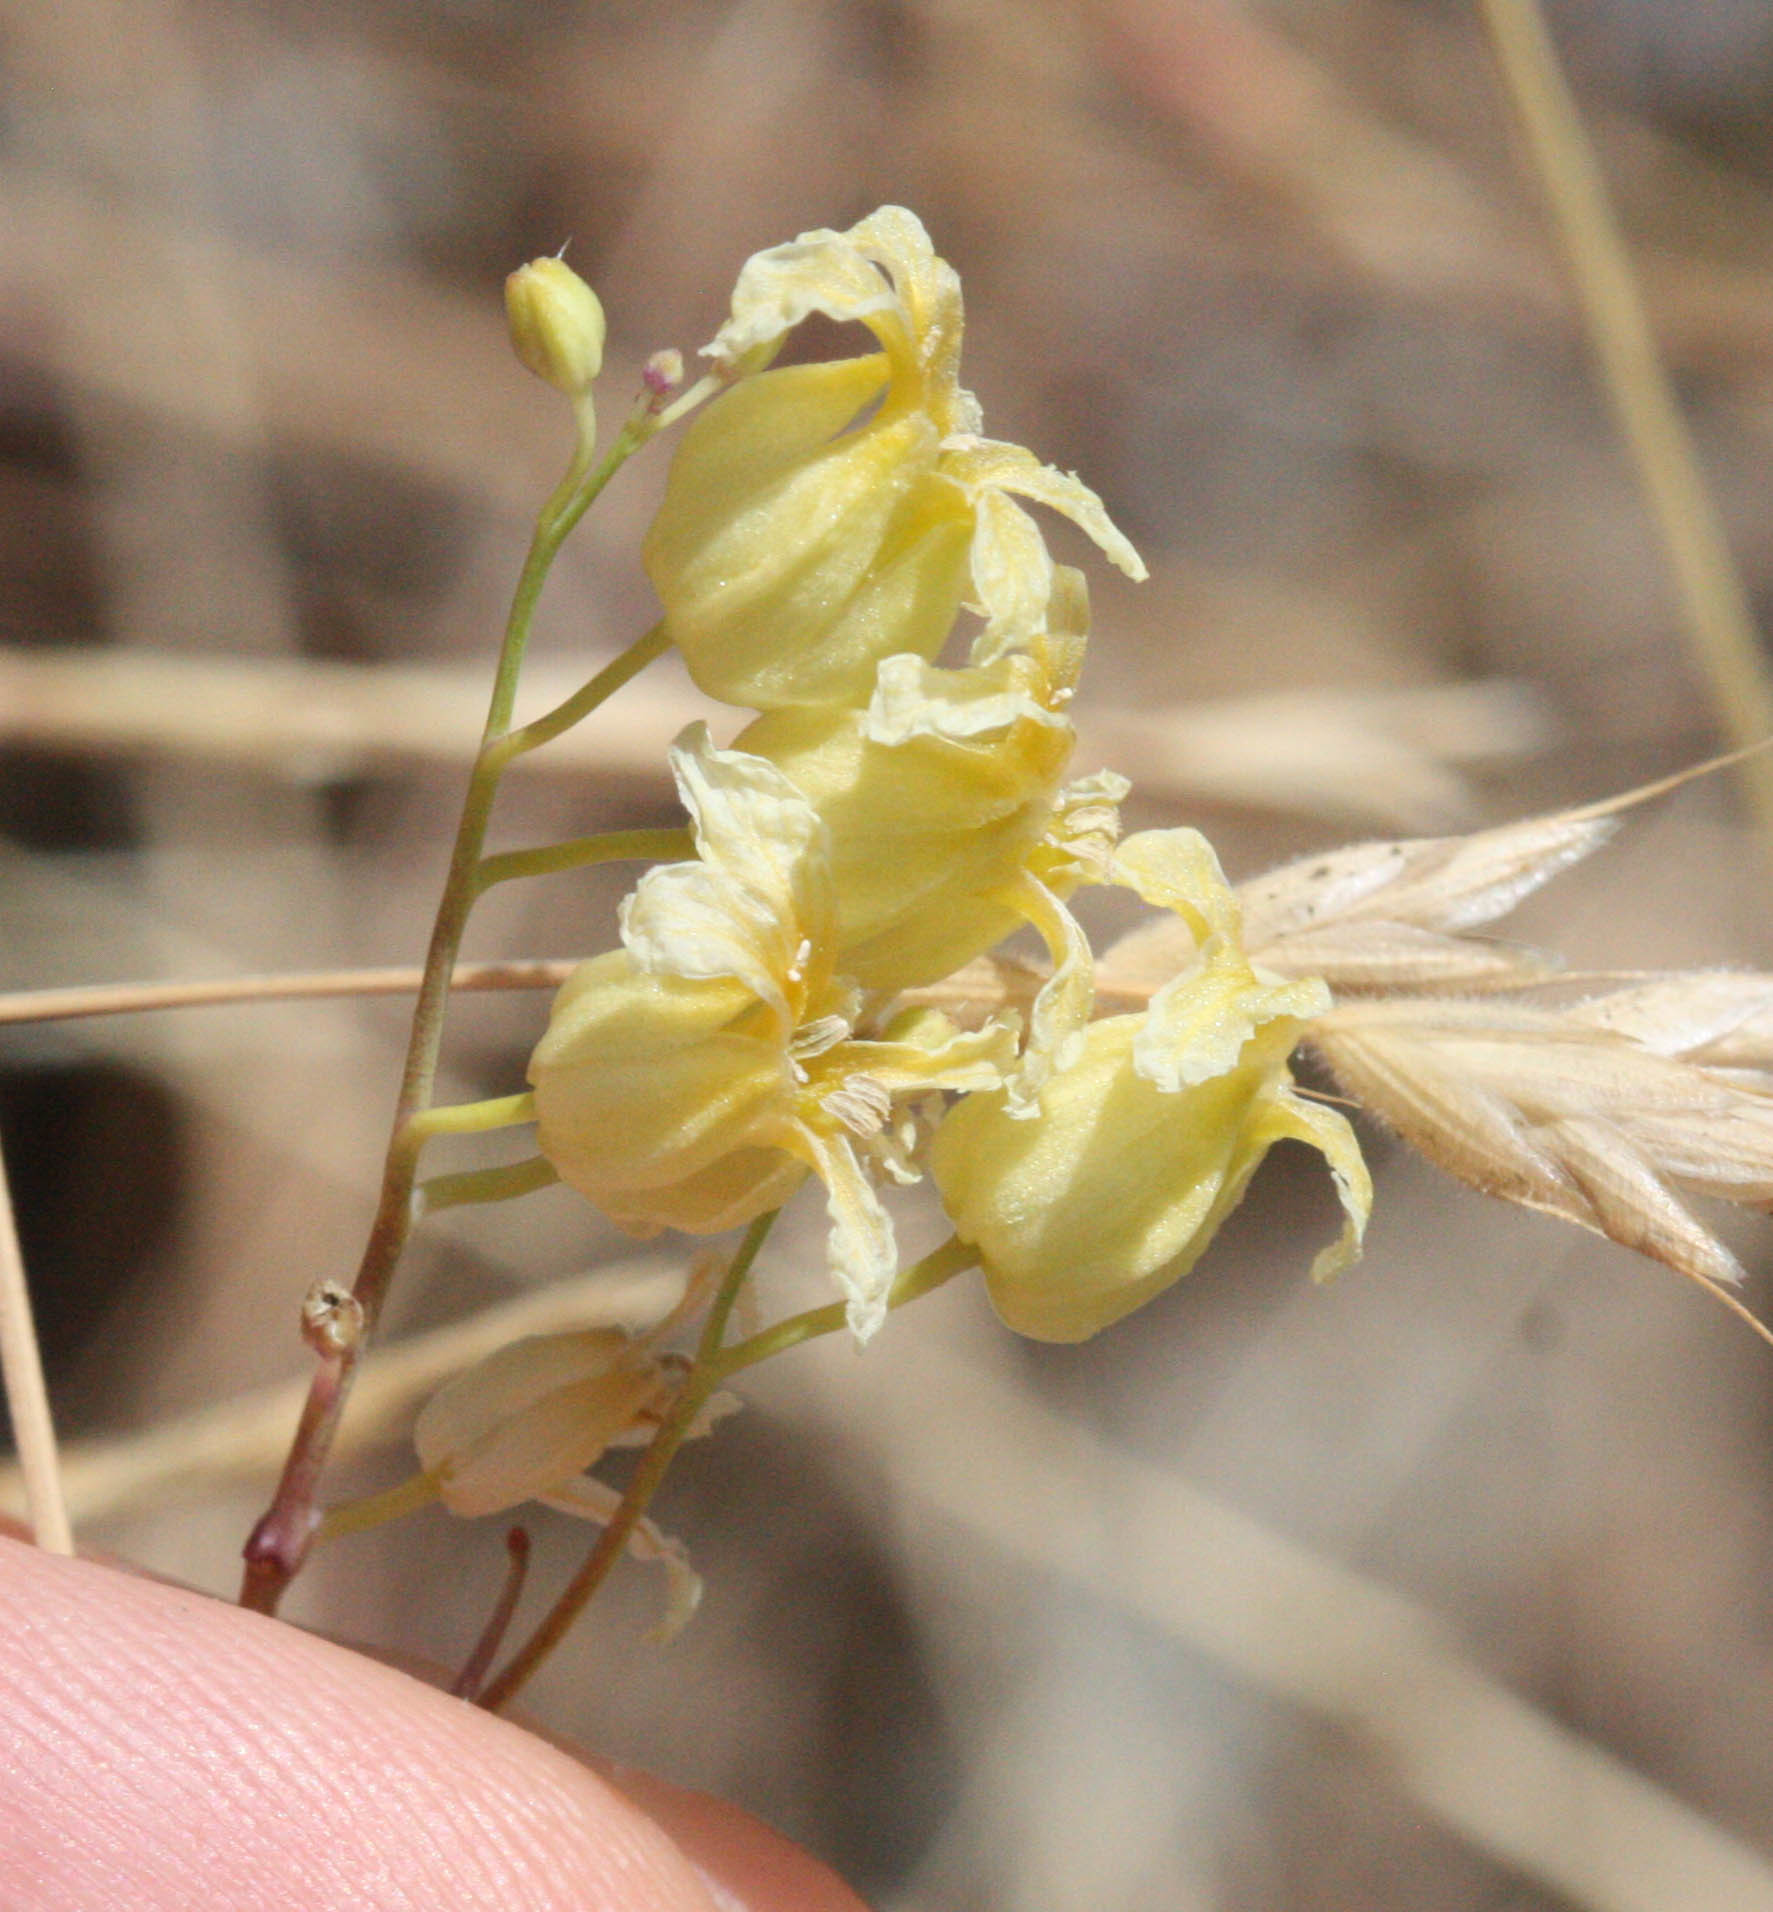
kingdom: Plantae
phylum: Tracheophyta
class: Magnoliopsida
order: Brassicales
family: Brassicaceae
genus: Streptanthus
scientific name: Streptanthus glandulosus
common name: Jewel-flower
